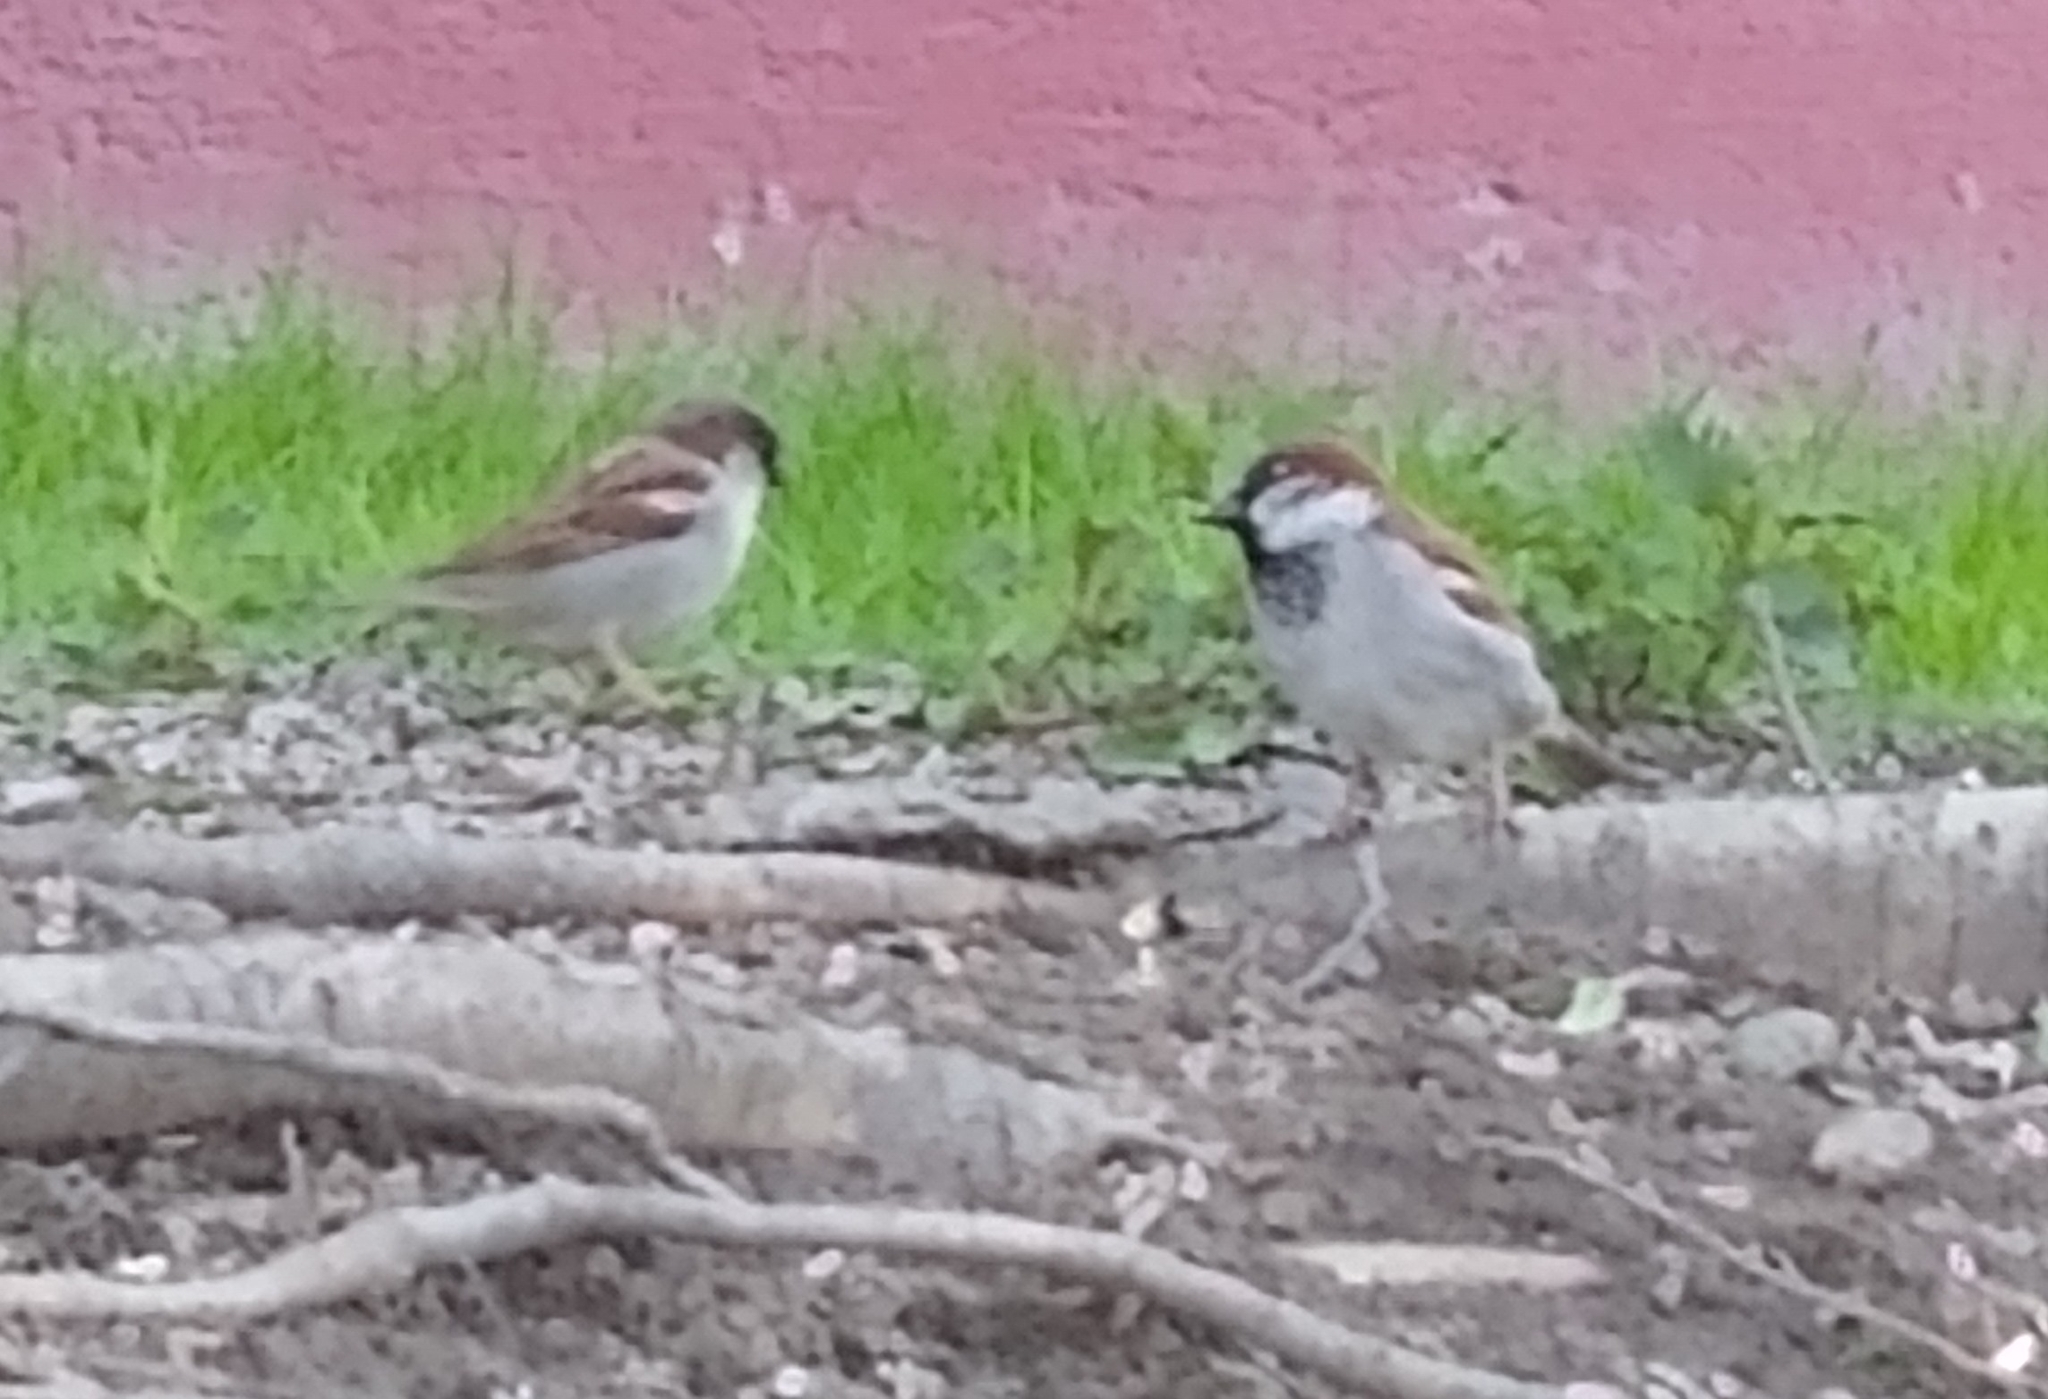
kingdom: Animalia
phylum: Chordata
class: Aves
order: Passeriformes
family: Passeridae
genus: Passer
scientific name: Passer domesticus
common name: House sparrow
